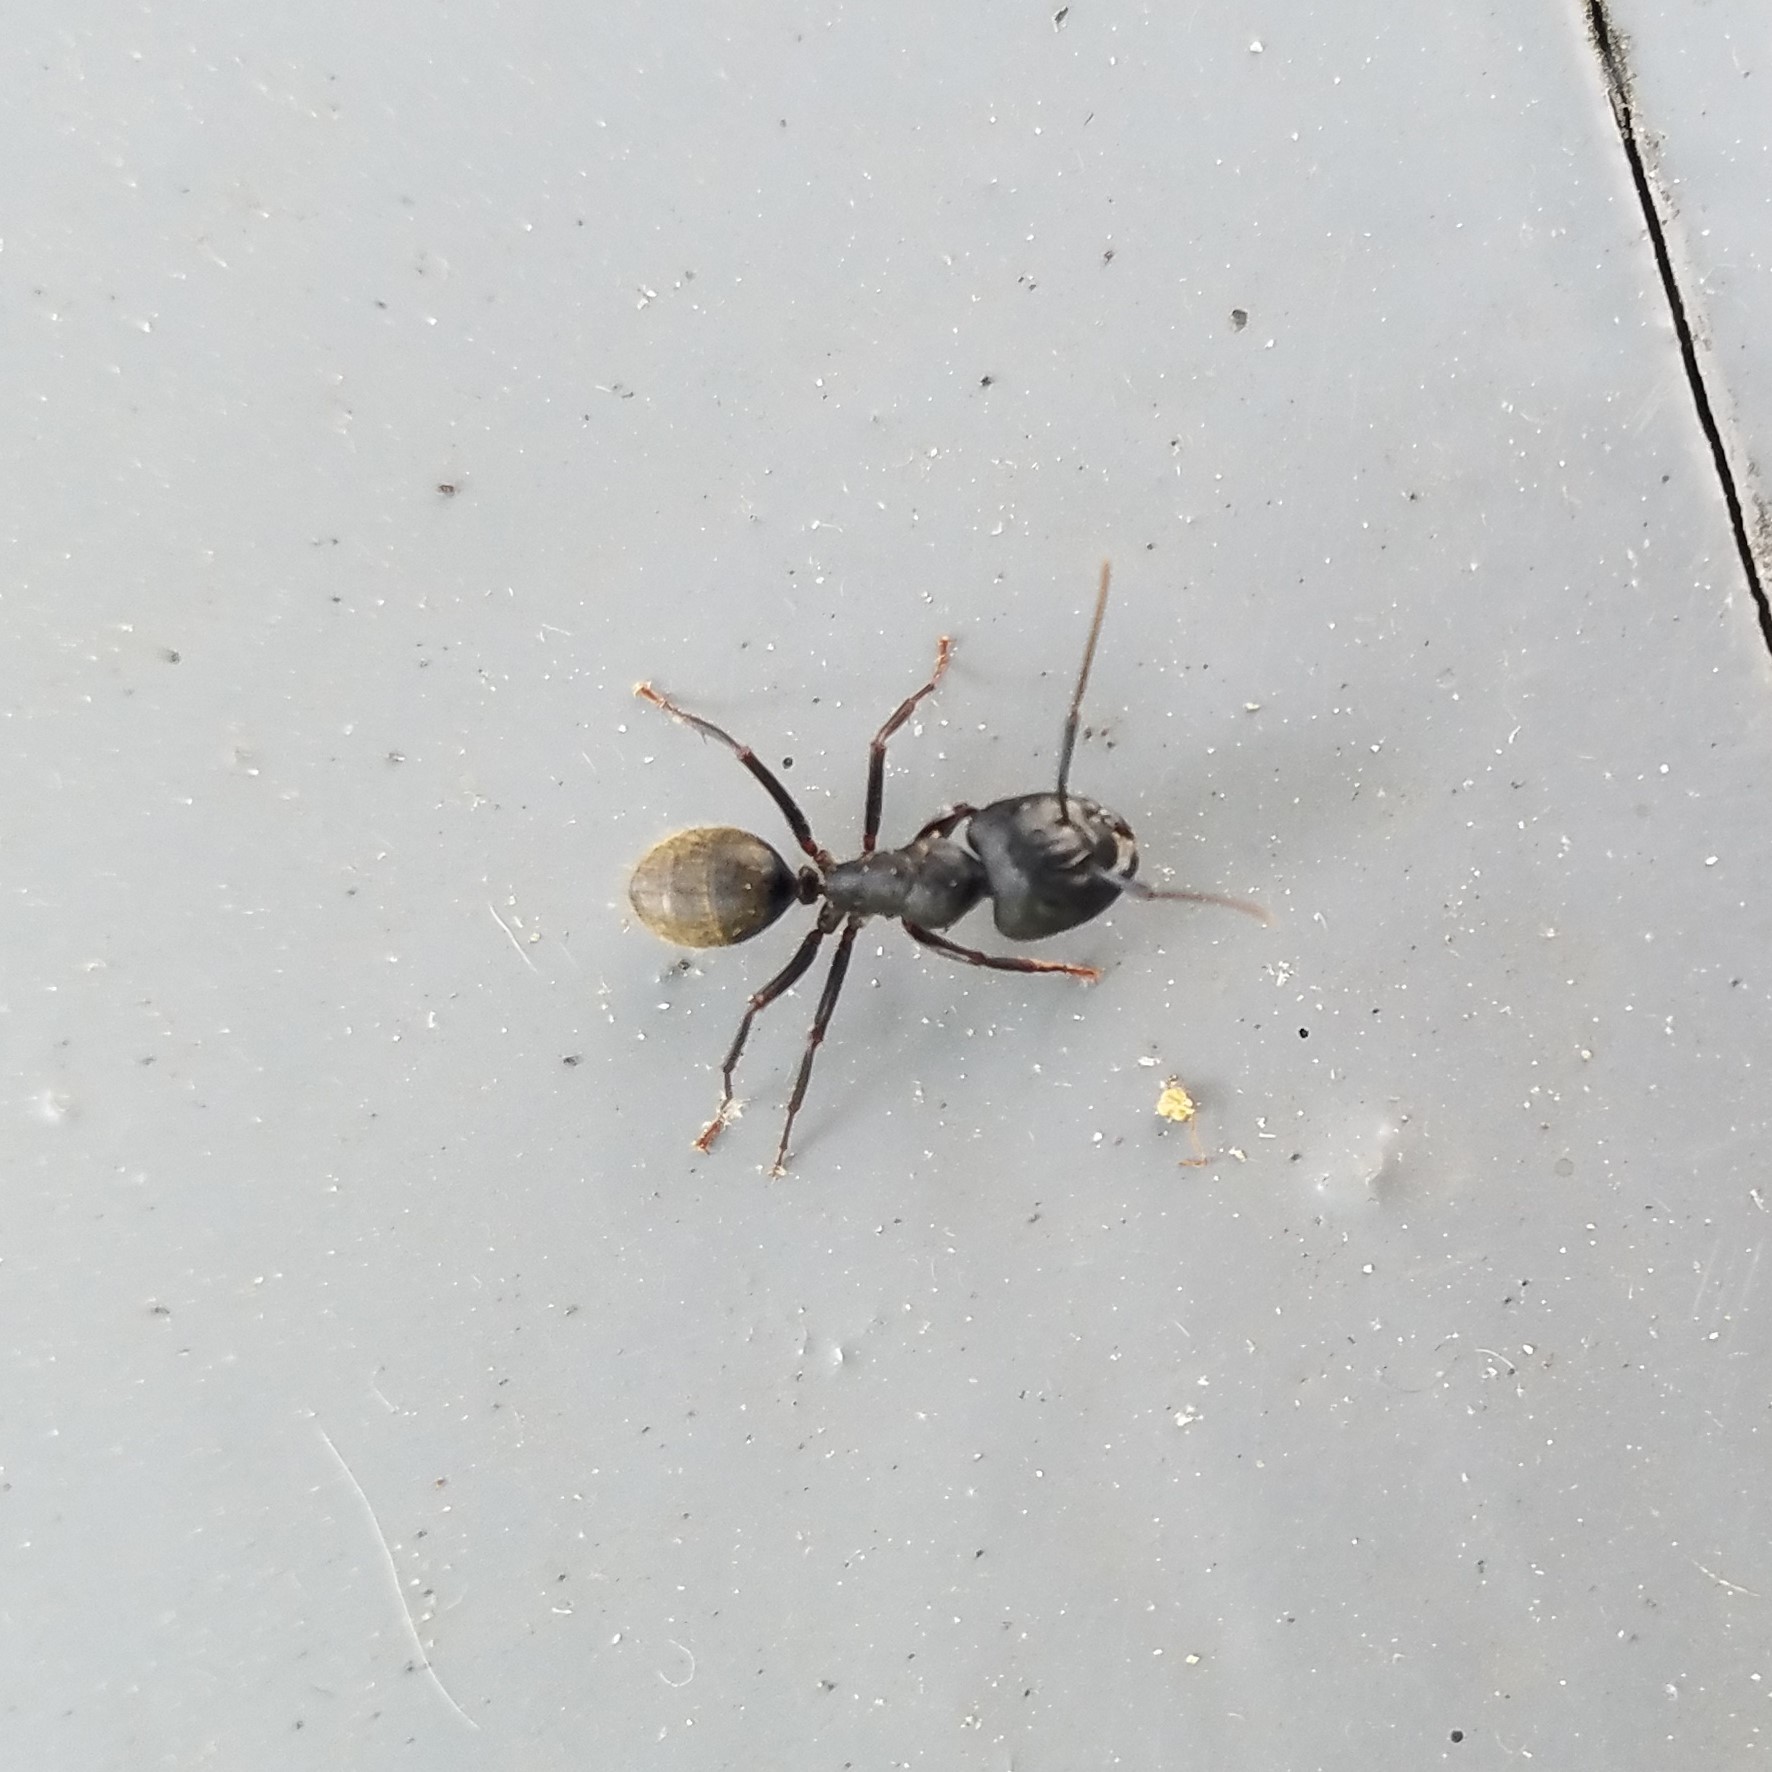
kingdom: Animalia
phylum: Arthropoda
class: Insecta
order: Hymenoptera
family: Formicidae
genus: Camponotus
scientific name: Camponotus pennsylvanicus
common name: Black carpenter ant
